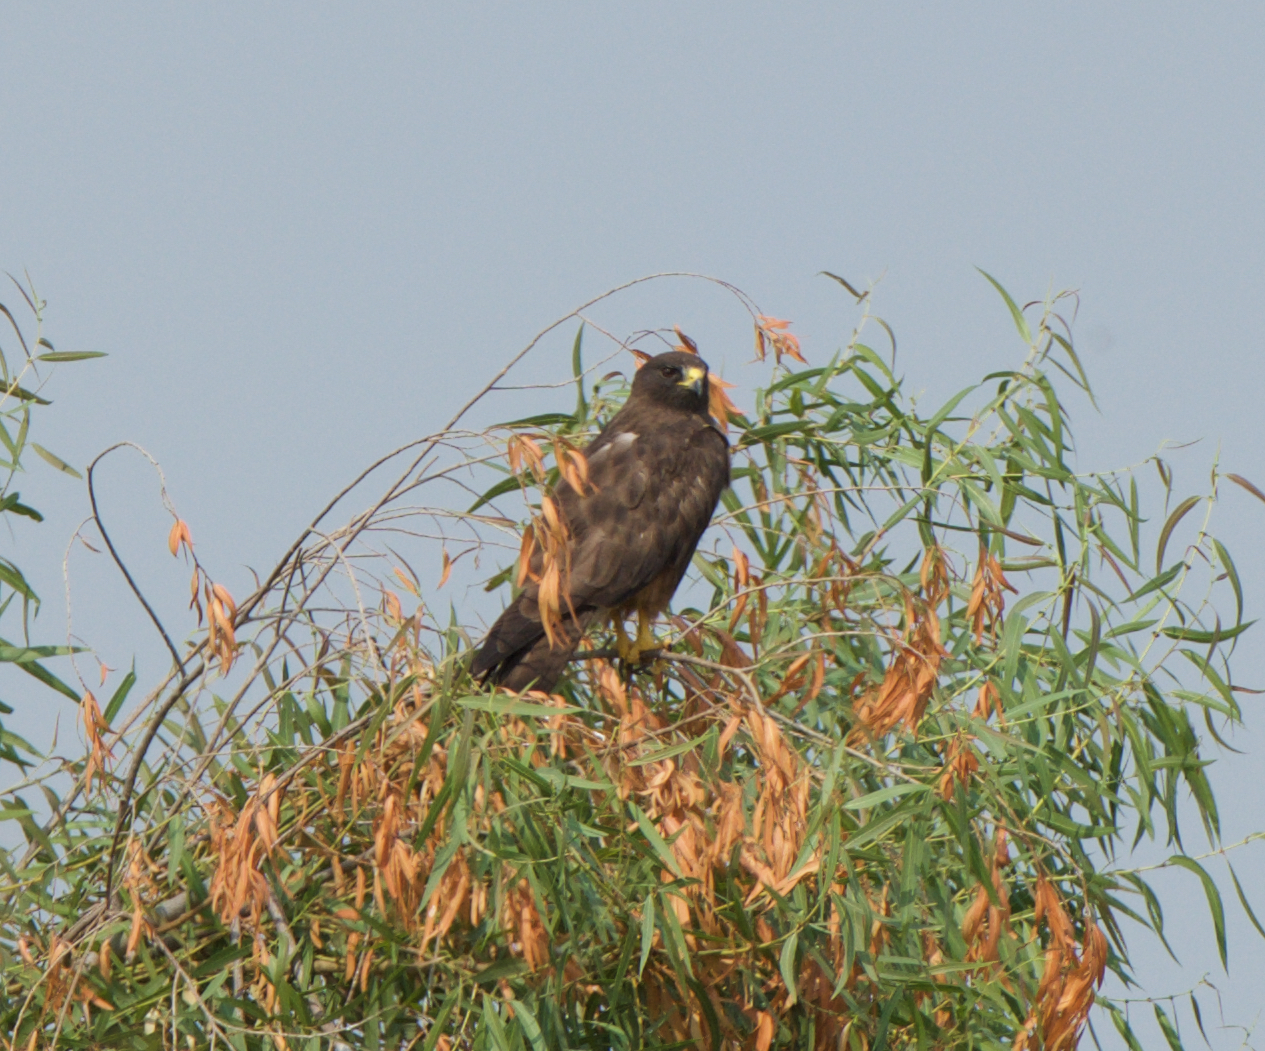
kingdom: Animalia
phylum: Chordata
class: Aves
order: Accipitriformes
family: Accipitridae
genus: Buteo
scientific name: Buteo swainsoni
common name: Swainson's hawk
